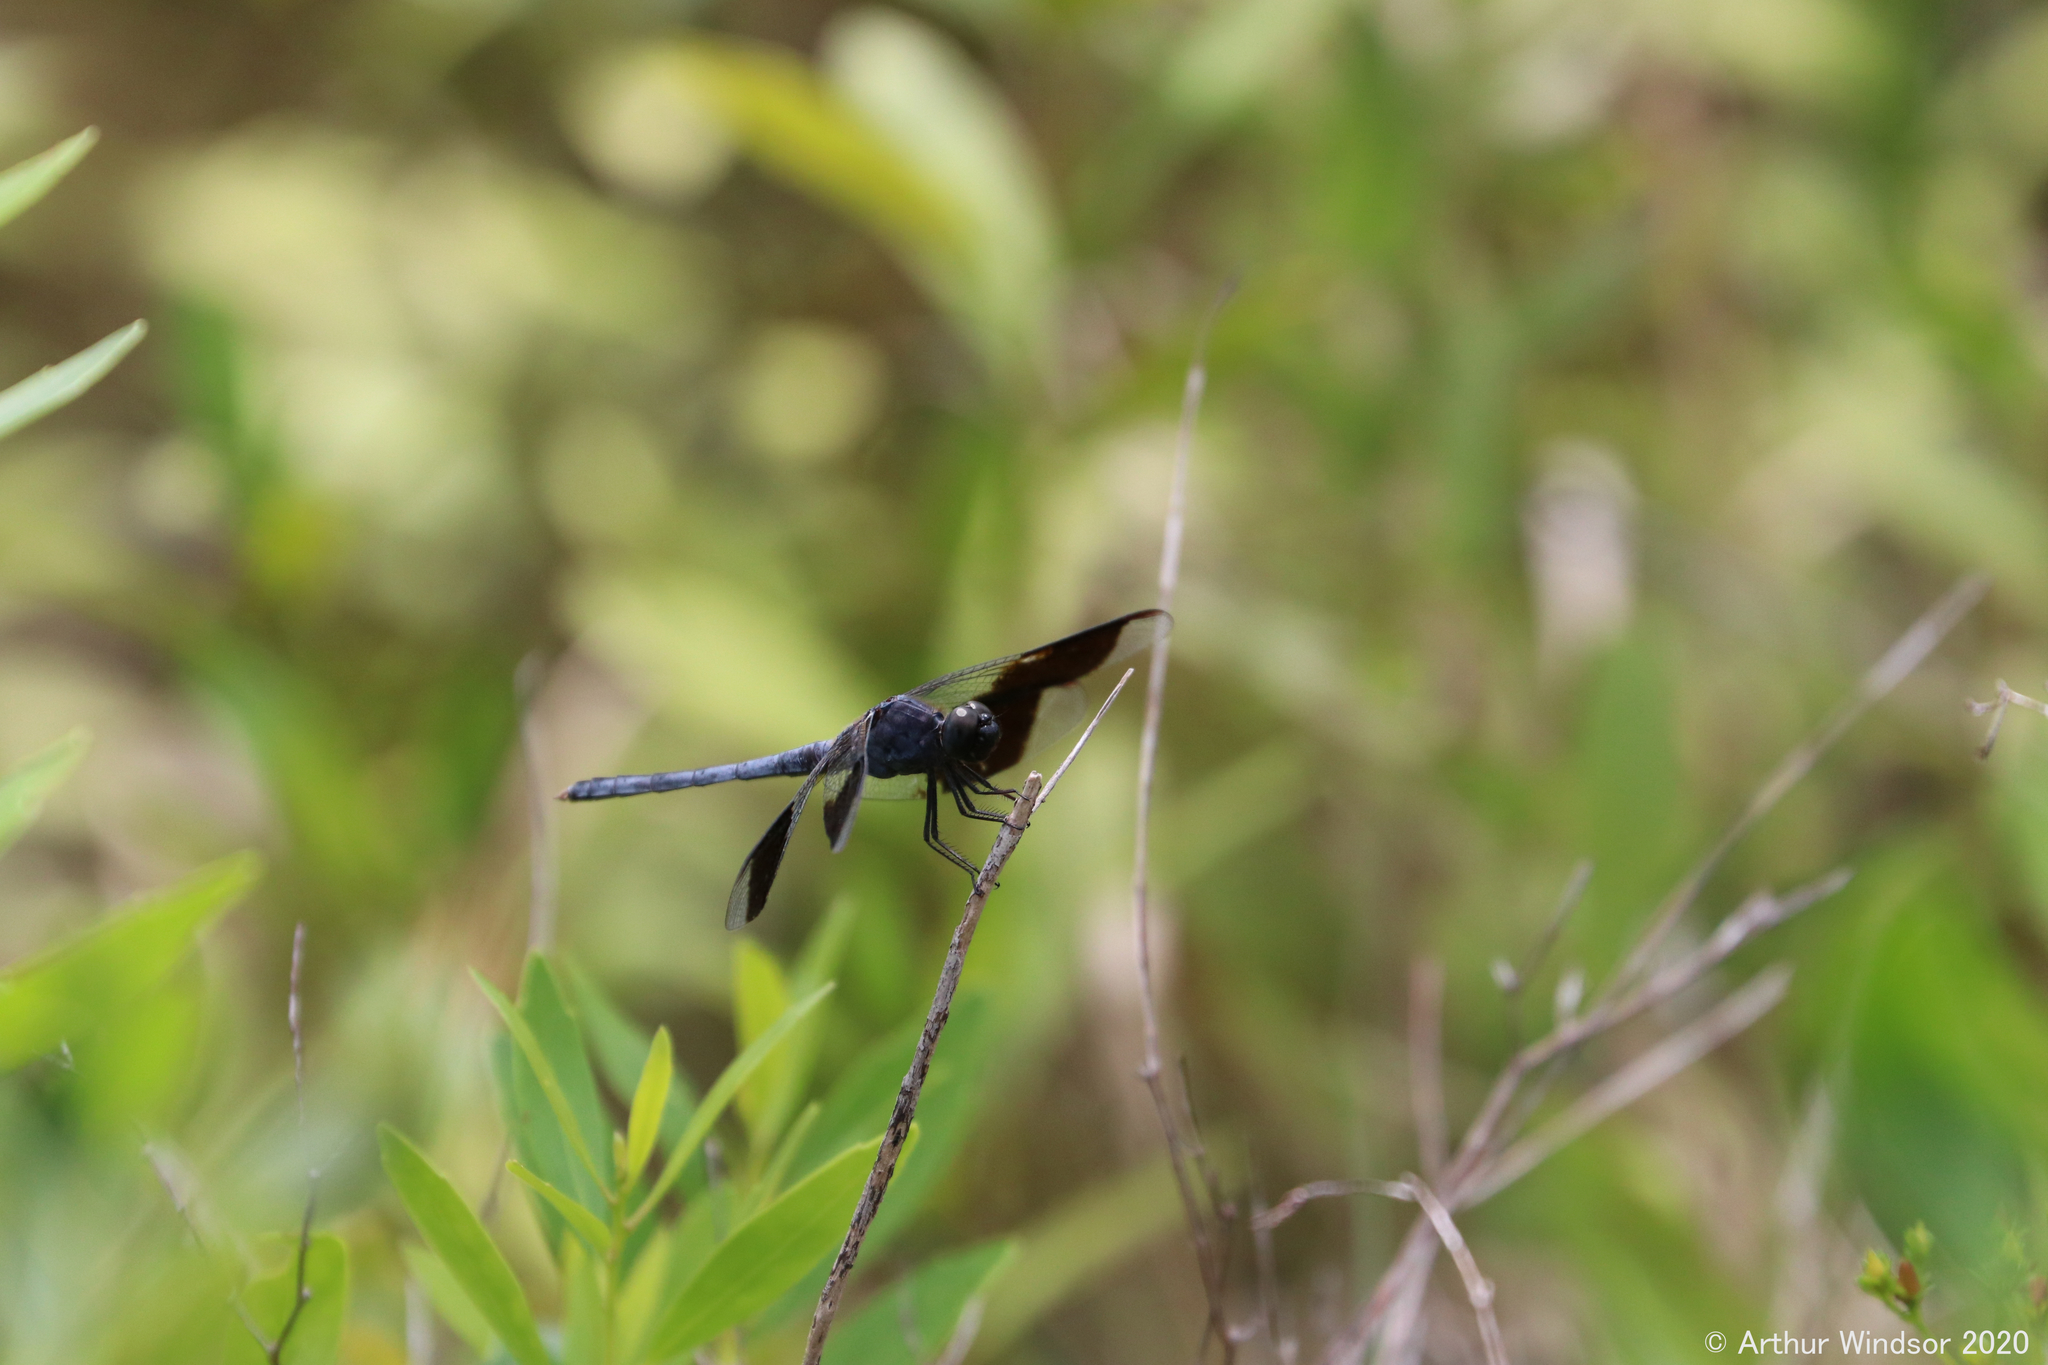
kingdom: Animalia
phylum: Arthropoda
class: Insecta
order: Odonata
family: Libellulidae
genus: Erythrodiplax
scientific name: Erythrodiplax umbrata
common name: Band-winged dragonlet
